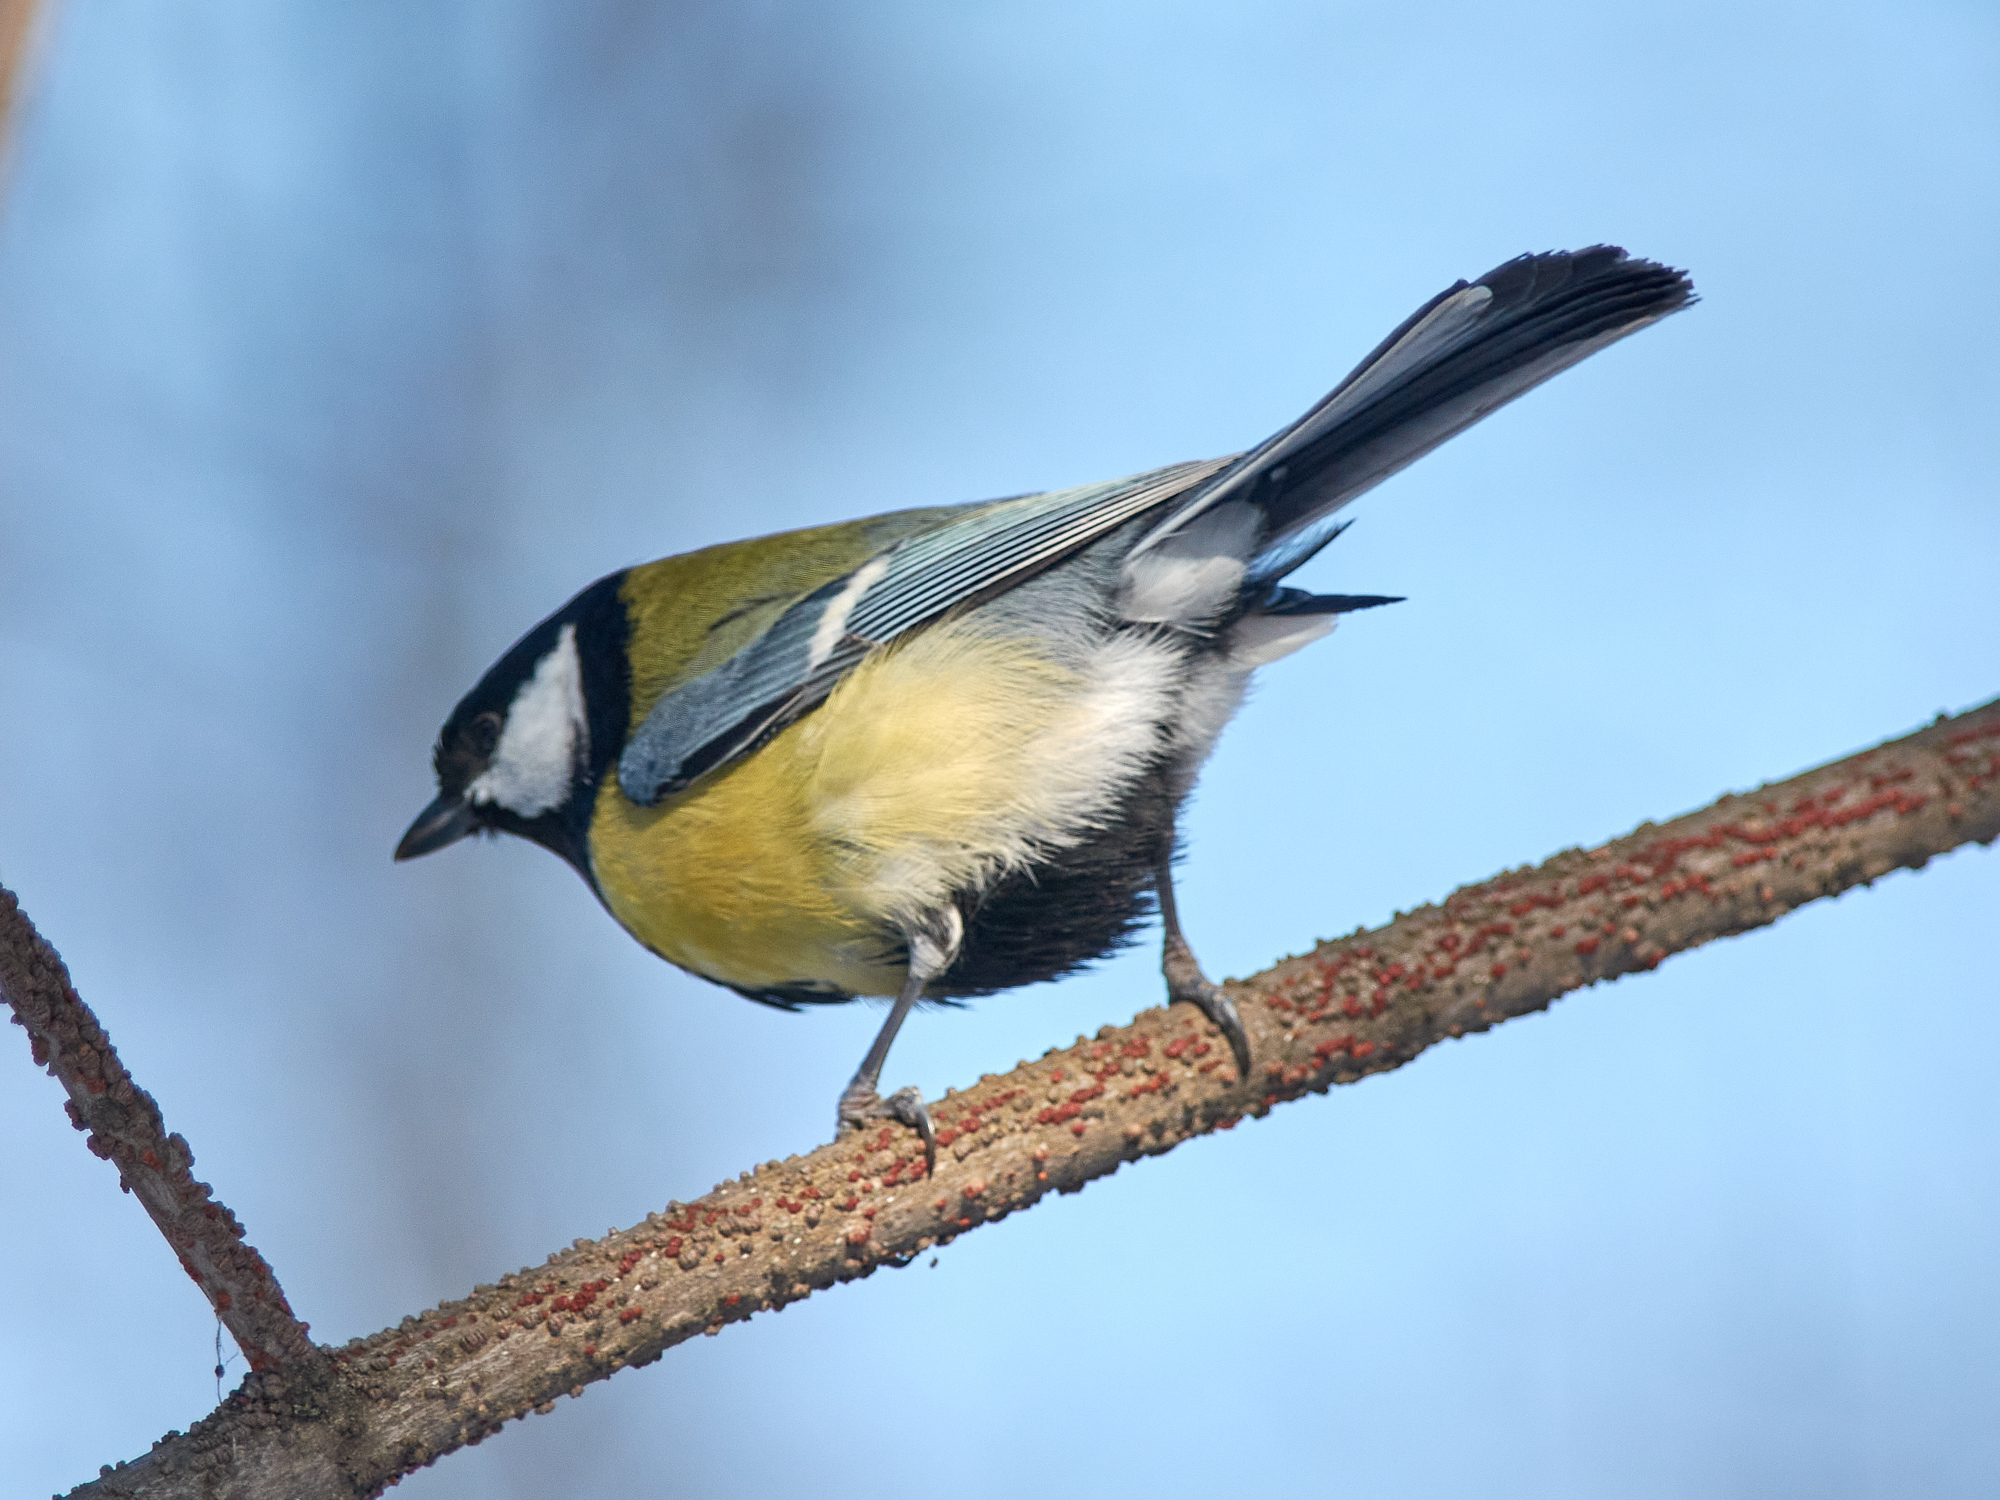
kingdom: Animalia
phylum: Chordata
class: Aves
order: Passeriformes
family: Paridae
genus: Parus
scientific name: Parus major
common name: Great tit
